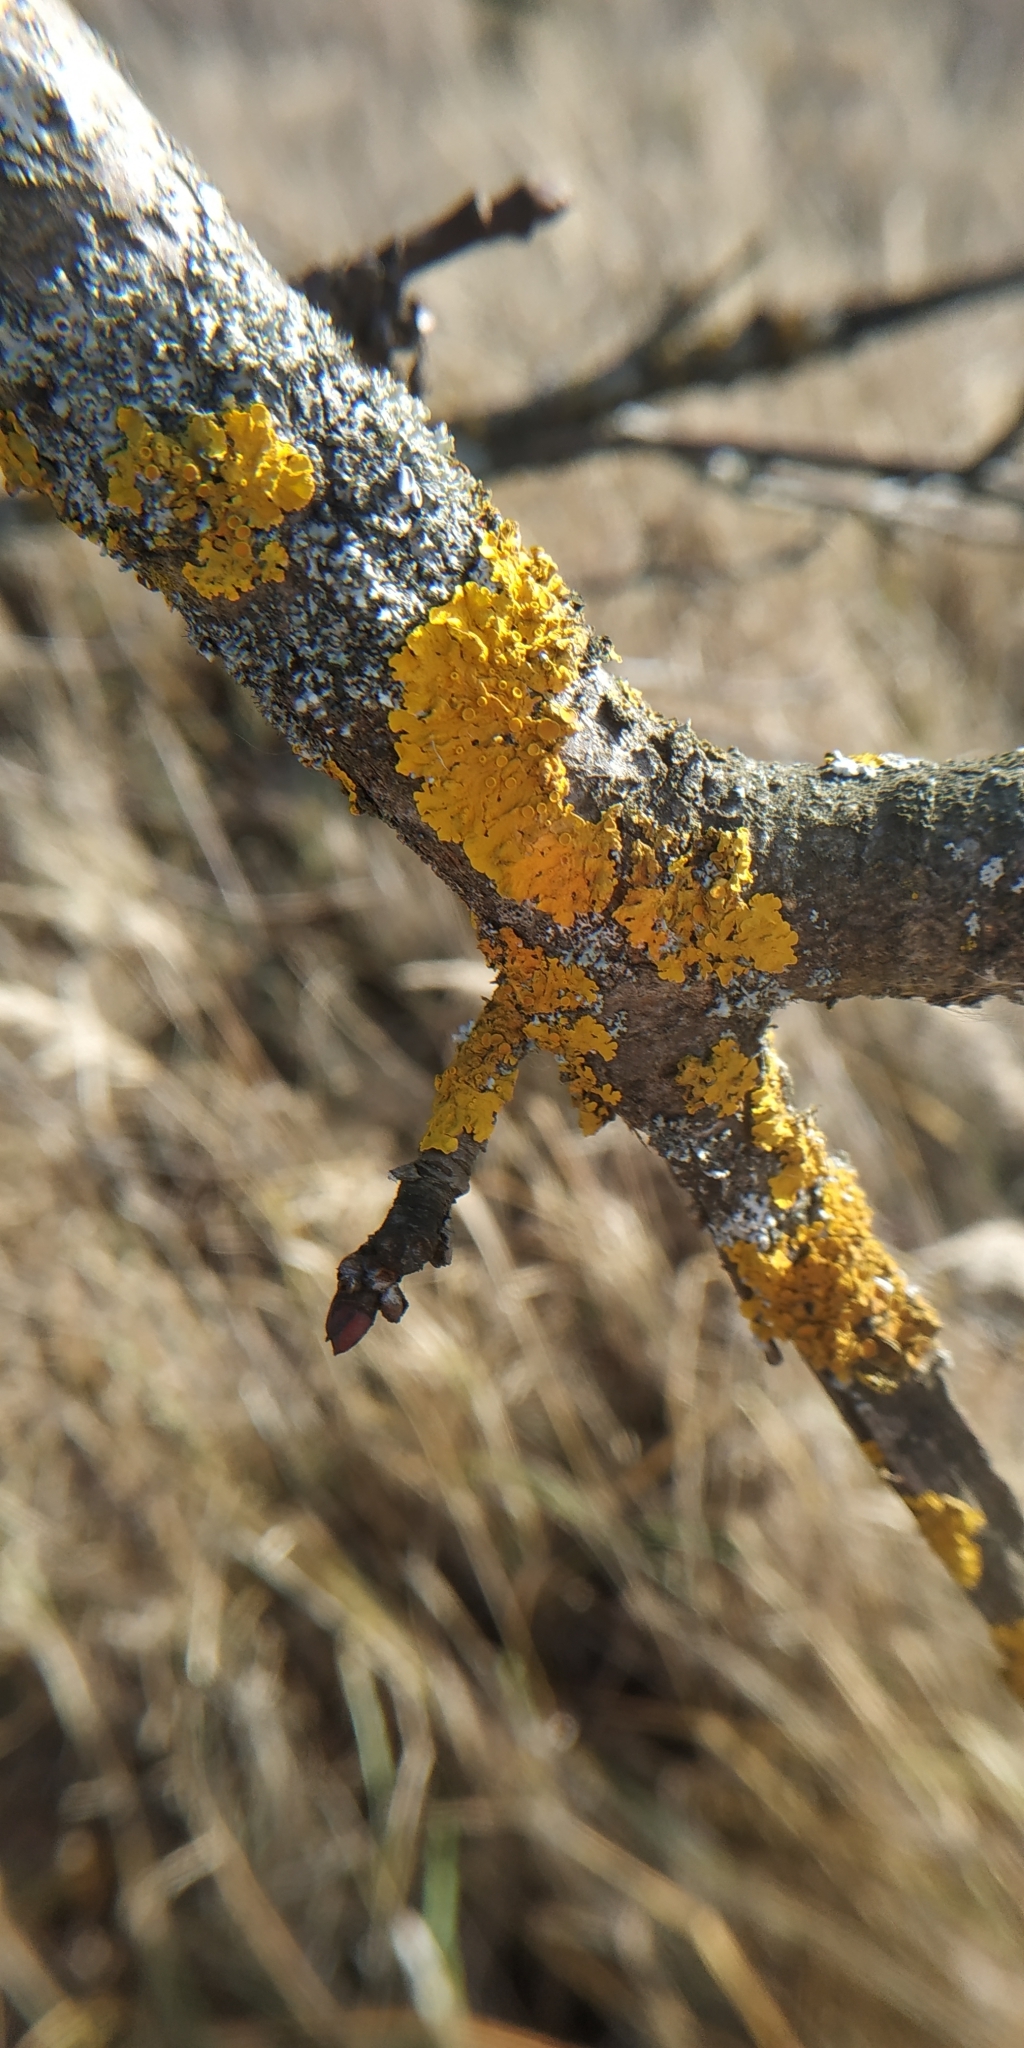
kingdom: Fungi
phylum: Ascomycota
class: Lecanoromycetes
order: Teloschistales
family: Teloschistaceae
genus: Xanthoria
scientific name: Xanthoria parietina
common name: Common orange lichen
